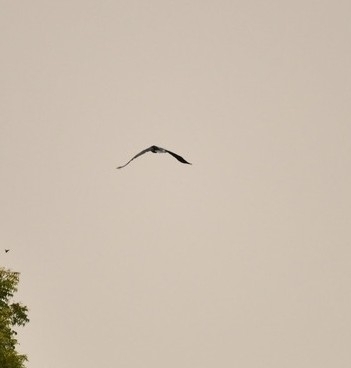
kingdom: Animalia
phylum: Chordata
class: Aves
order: Suliformes
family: Anhingidae
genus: Anhinga
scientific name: Anhinga melanogaster
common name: Oriental darter
